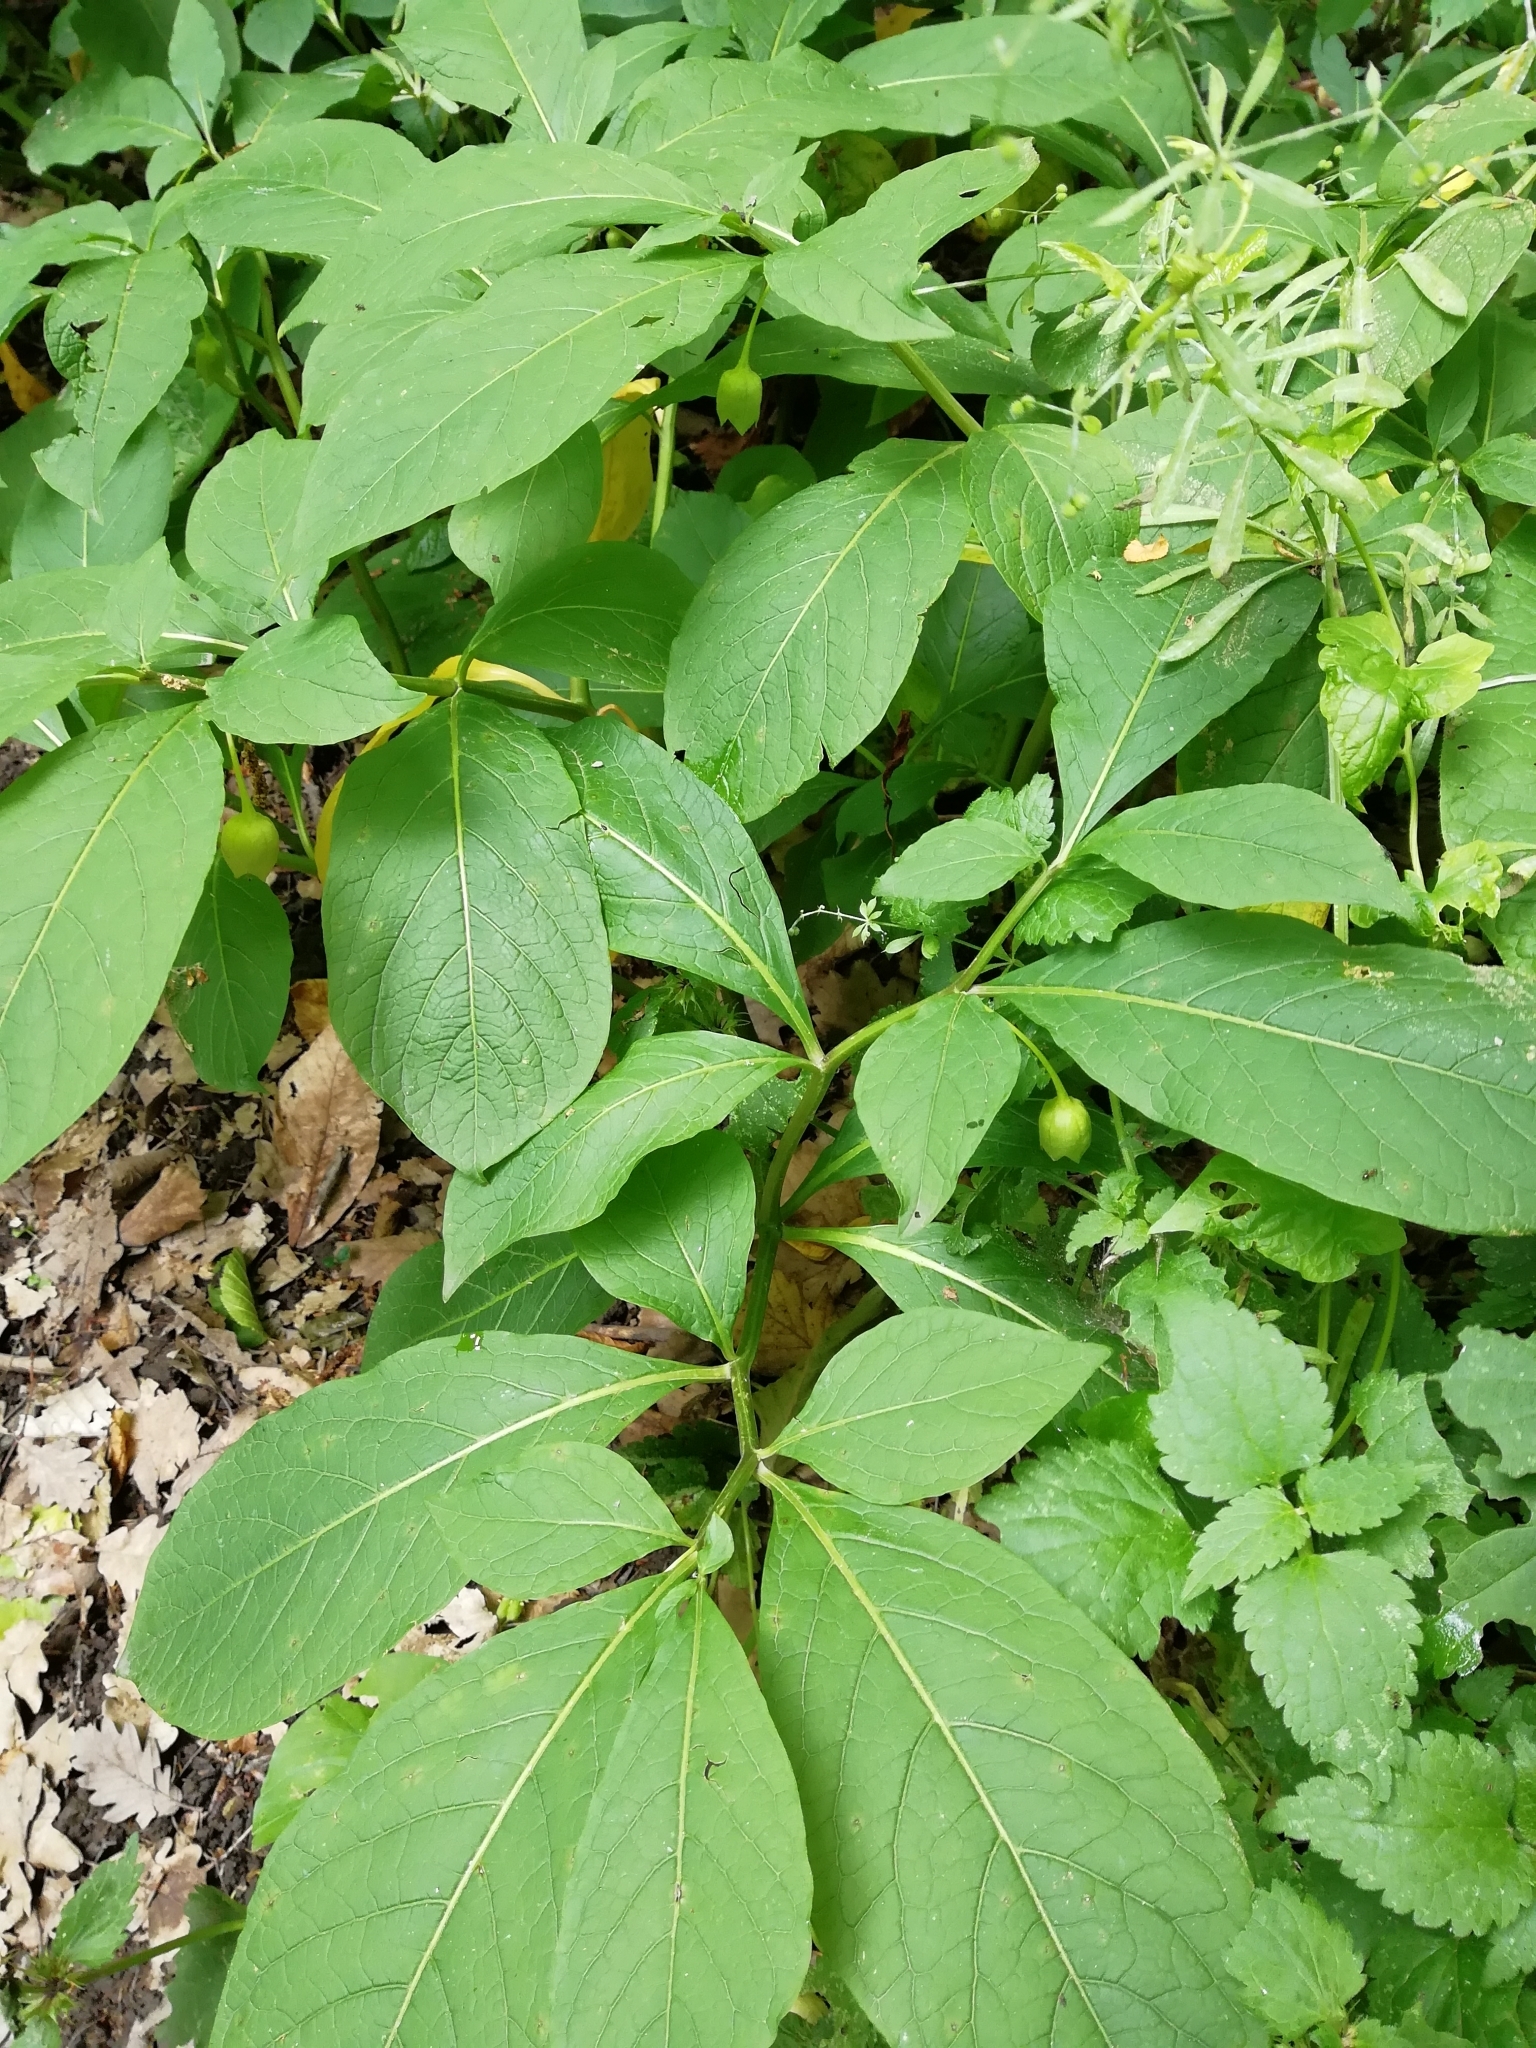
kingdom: Plantae
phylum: Tracheophyta
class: Magnoliopsida
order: Solanales
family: Solanaceae
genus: Scopolia
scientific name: Scopolia carniolica
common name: Scopolia
